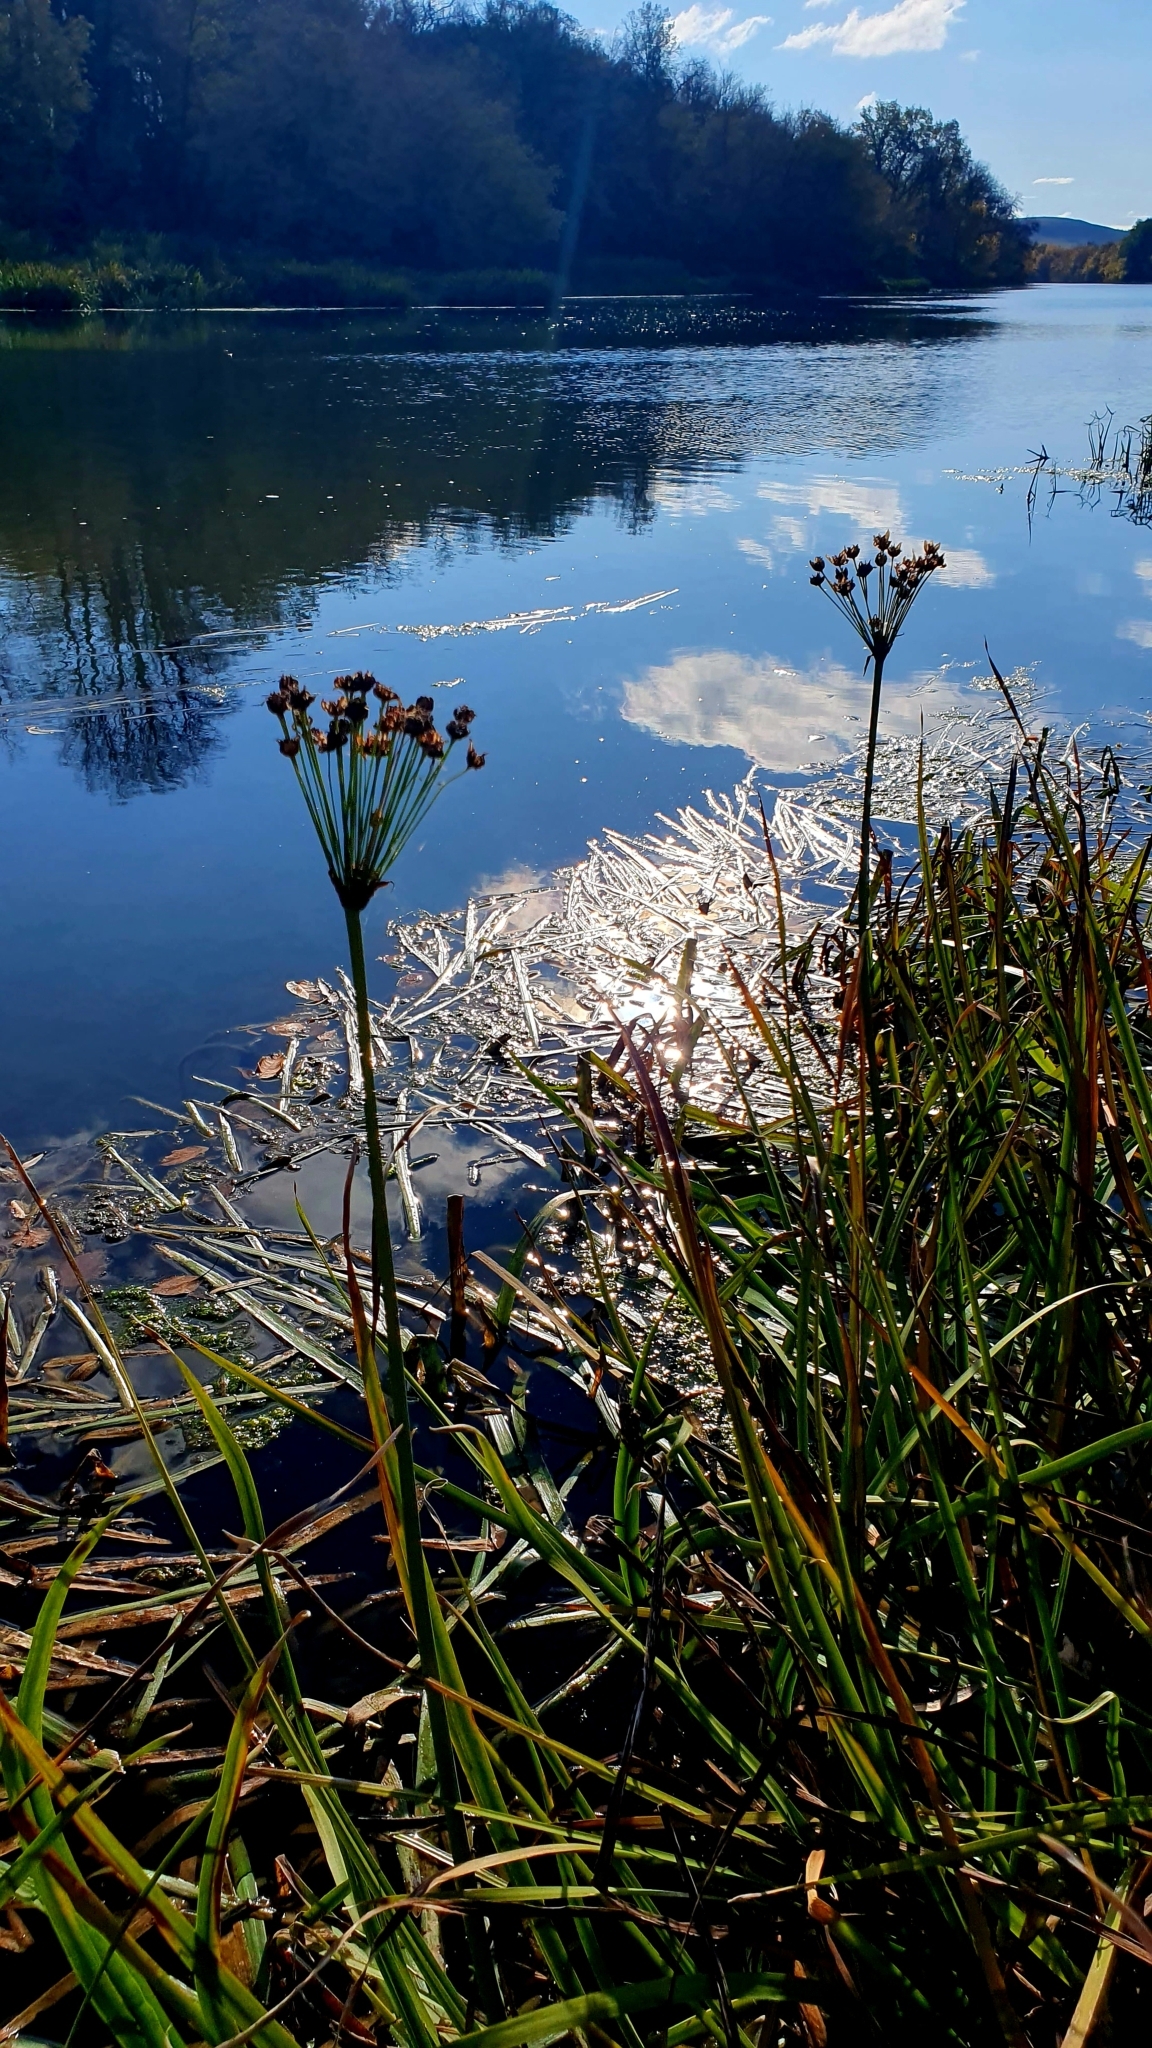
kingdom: Plantae
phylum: Tracheophyta
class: Liliopsida
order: Alismatales
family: Butomaceae
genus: Butomus
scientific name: Butomus umbellatus
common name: Flowering-rush
